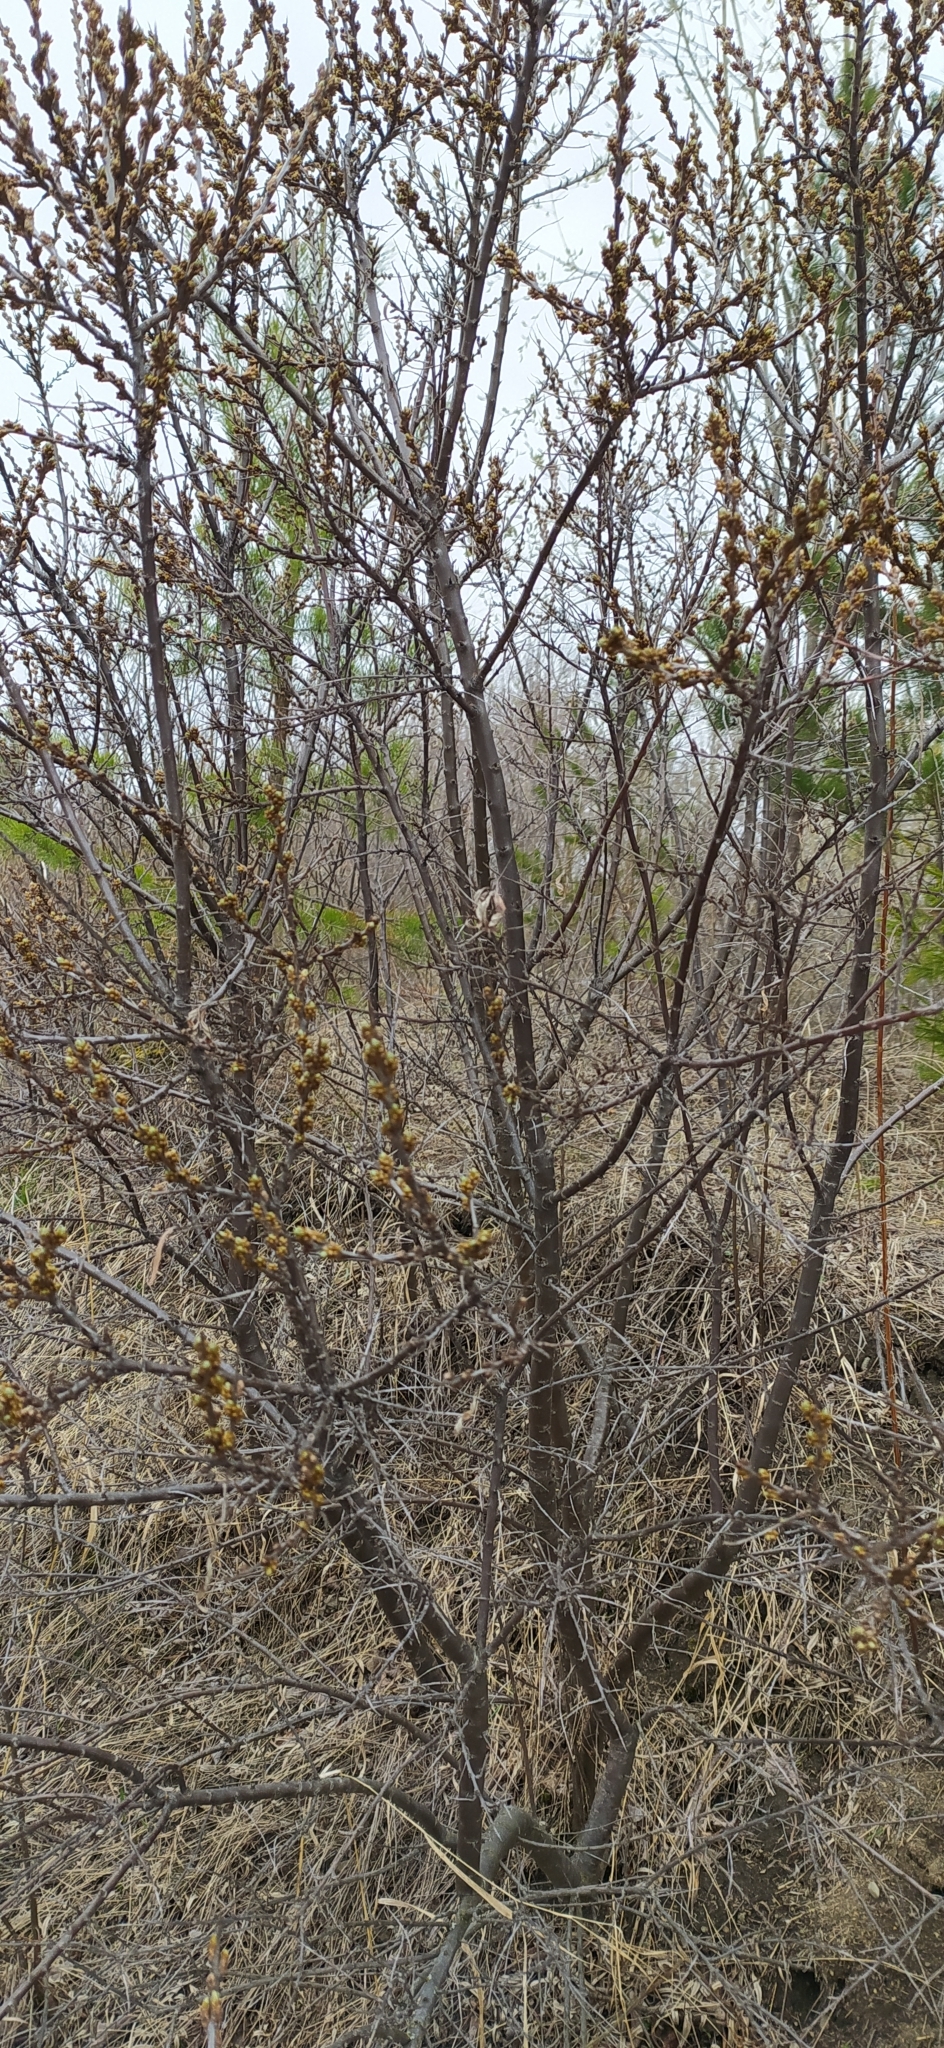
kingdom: Plantae
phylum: Tracheophyta
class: Magnoliopsida
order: Rosales
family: Elaeagnaceae
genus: Hippophae
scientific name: Hippophae rhamnoides
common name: Sea-buckthorn
